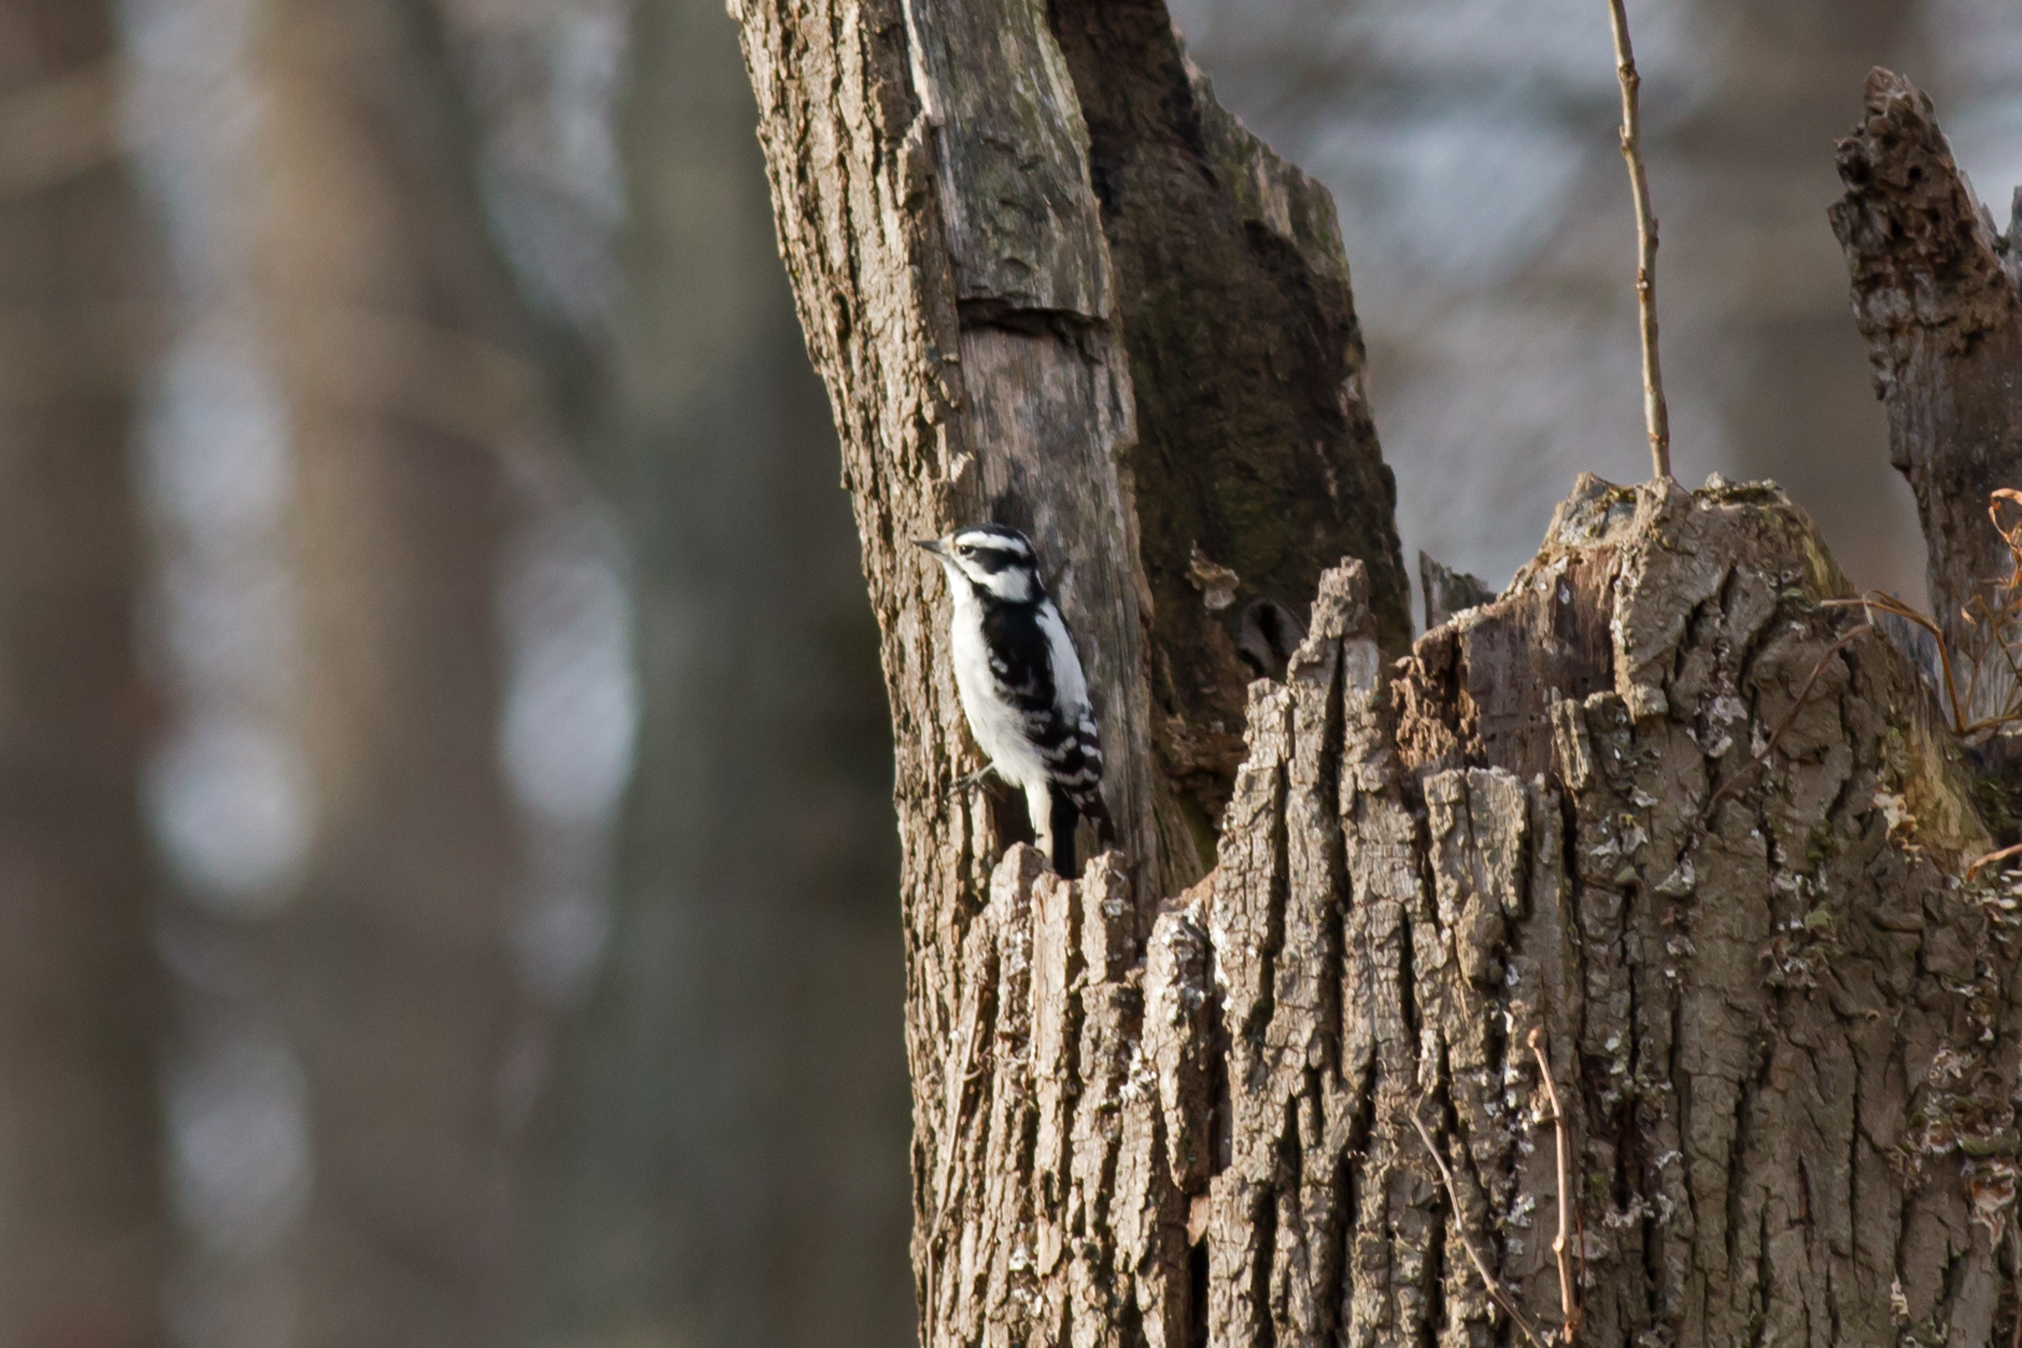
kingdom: Animalia
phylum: Chordata
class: Aves
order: Piciformes
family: Picidae
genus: Dryobates
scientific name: Dryobates pubescens
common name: Downy woodpecker
